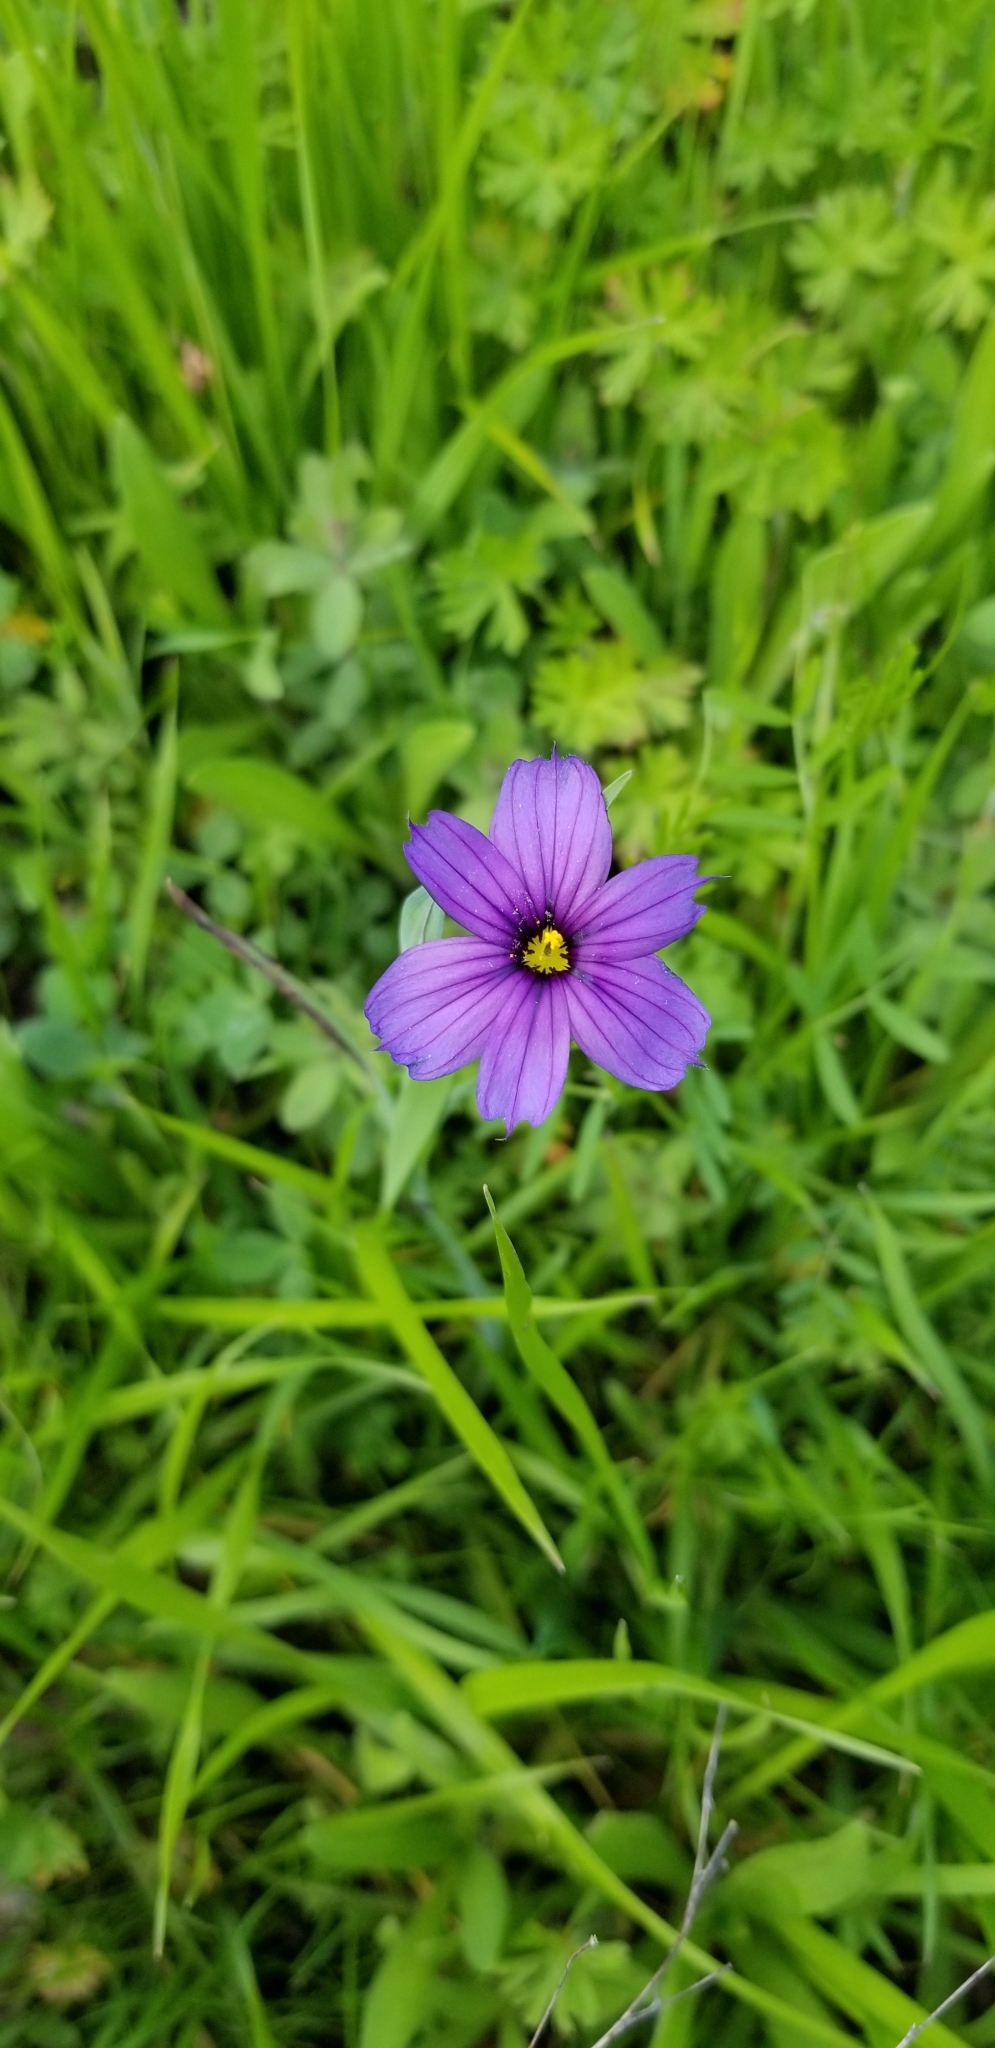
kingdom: Plantae
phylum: Tracheophyta
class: Liliopsida
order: Asparagales
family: Iridaceae
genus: Sisyrinchium
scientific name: Sisyrinchium bellum
